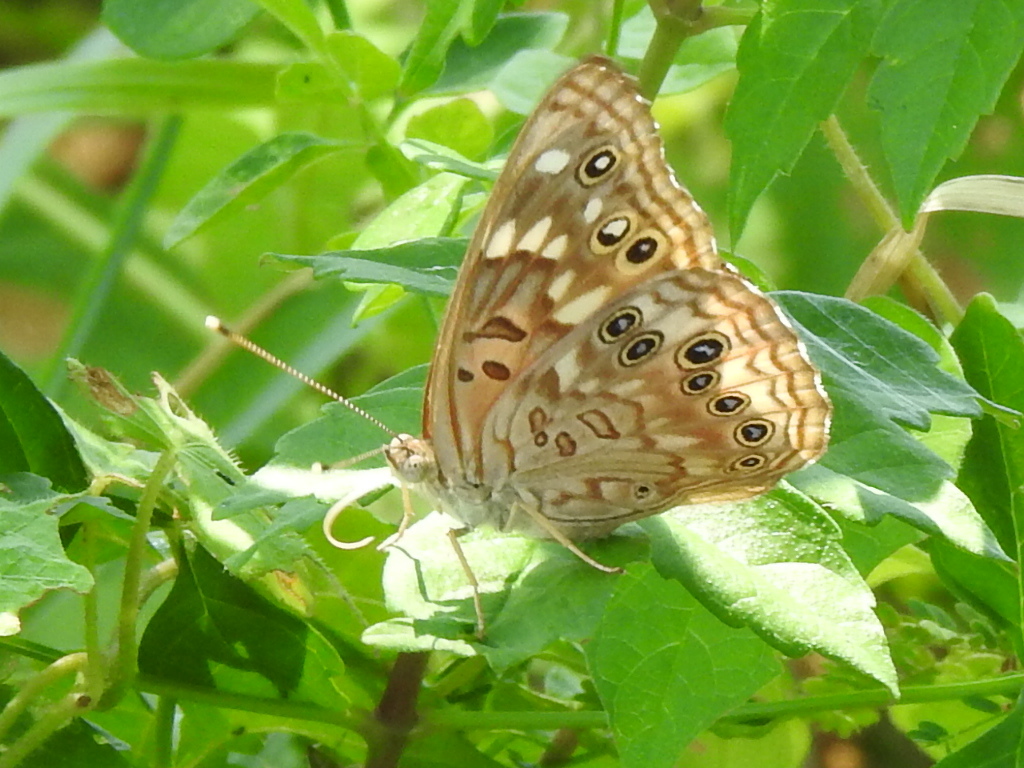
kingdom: Animalia
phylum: Arthropoda
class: Insecta
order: Lepidoptera
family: Nymphalidae
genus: Asterocampa
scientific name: Asterocampa celtis
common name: Hackberry emperor
